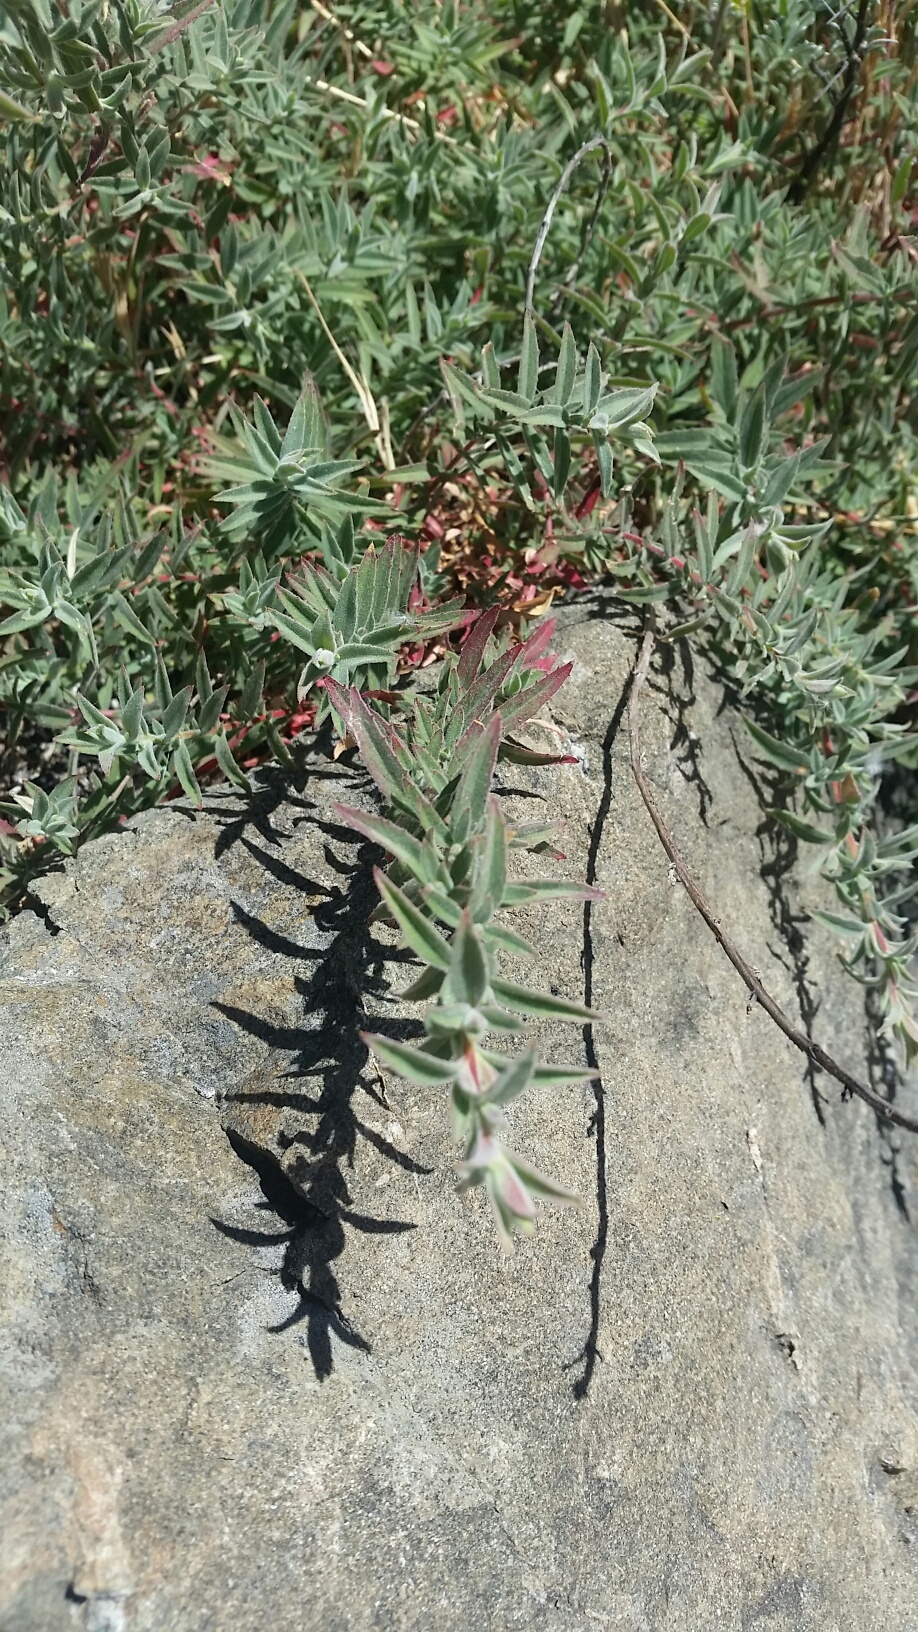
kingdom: Plantae
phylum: Tracheophyta
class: Magnoliopsida
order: Myrtales
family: Onagraceae
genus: Epilobium
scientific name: Epilobium canum
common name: California-fuchsia
